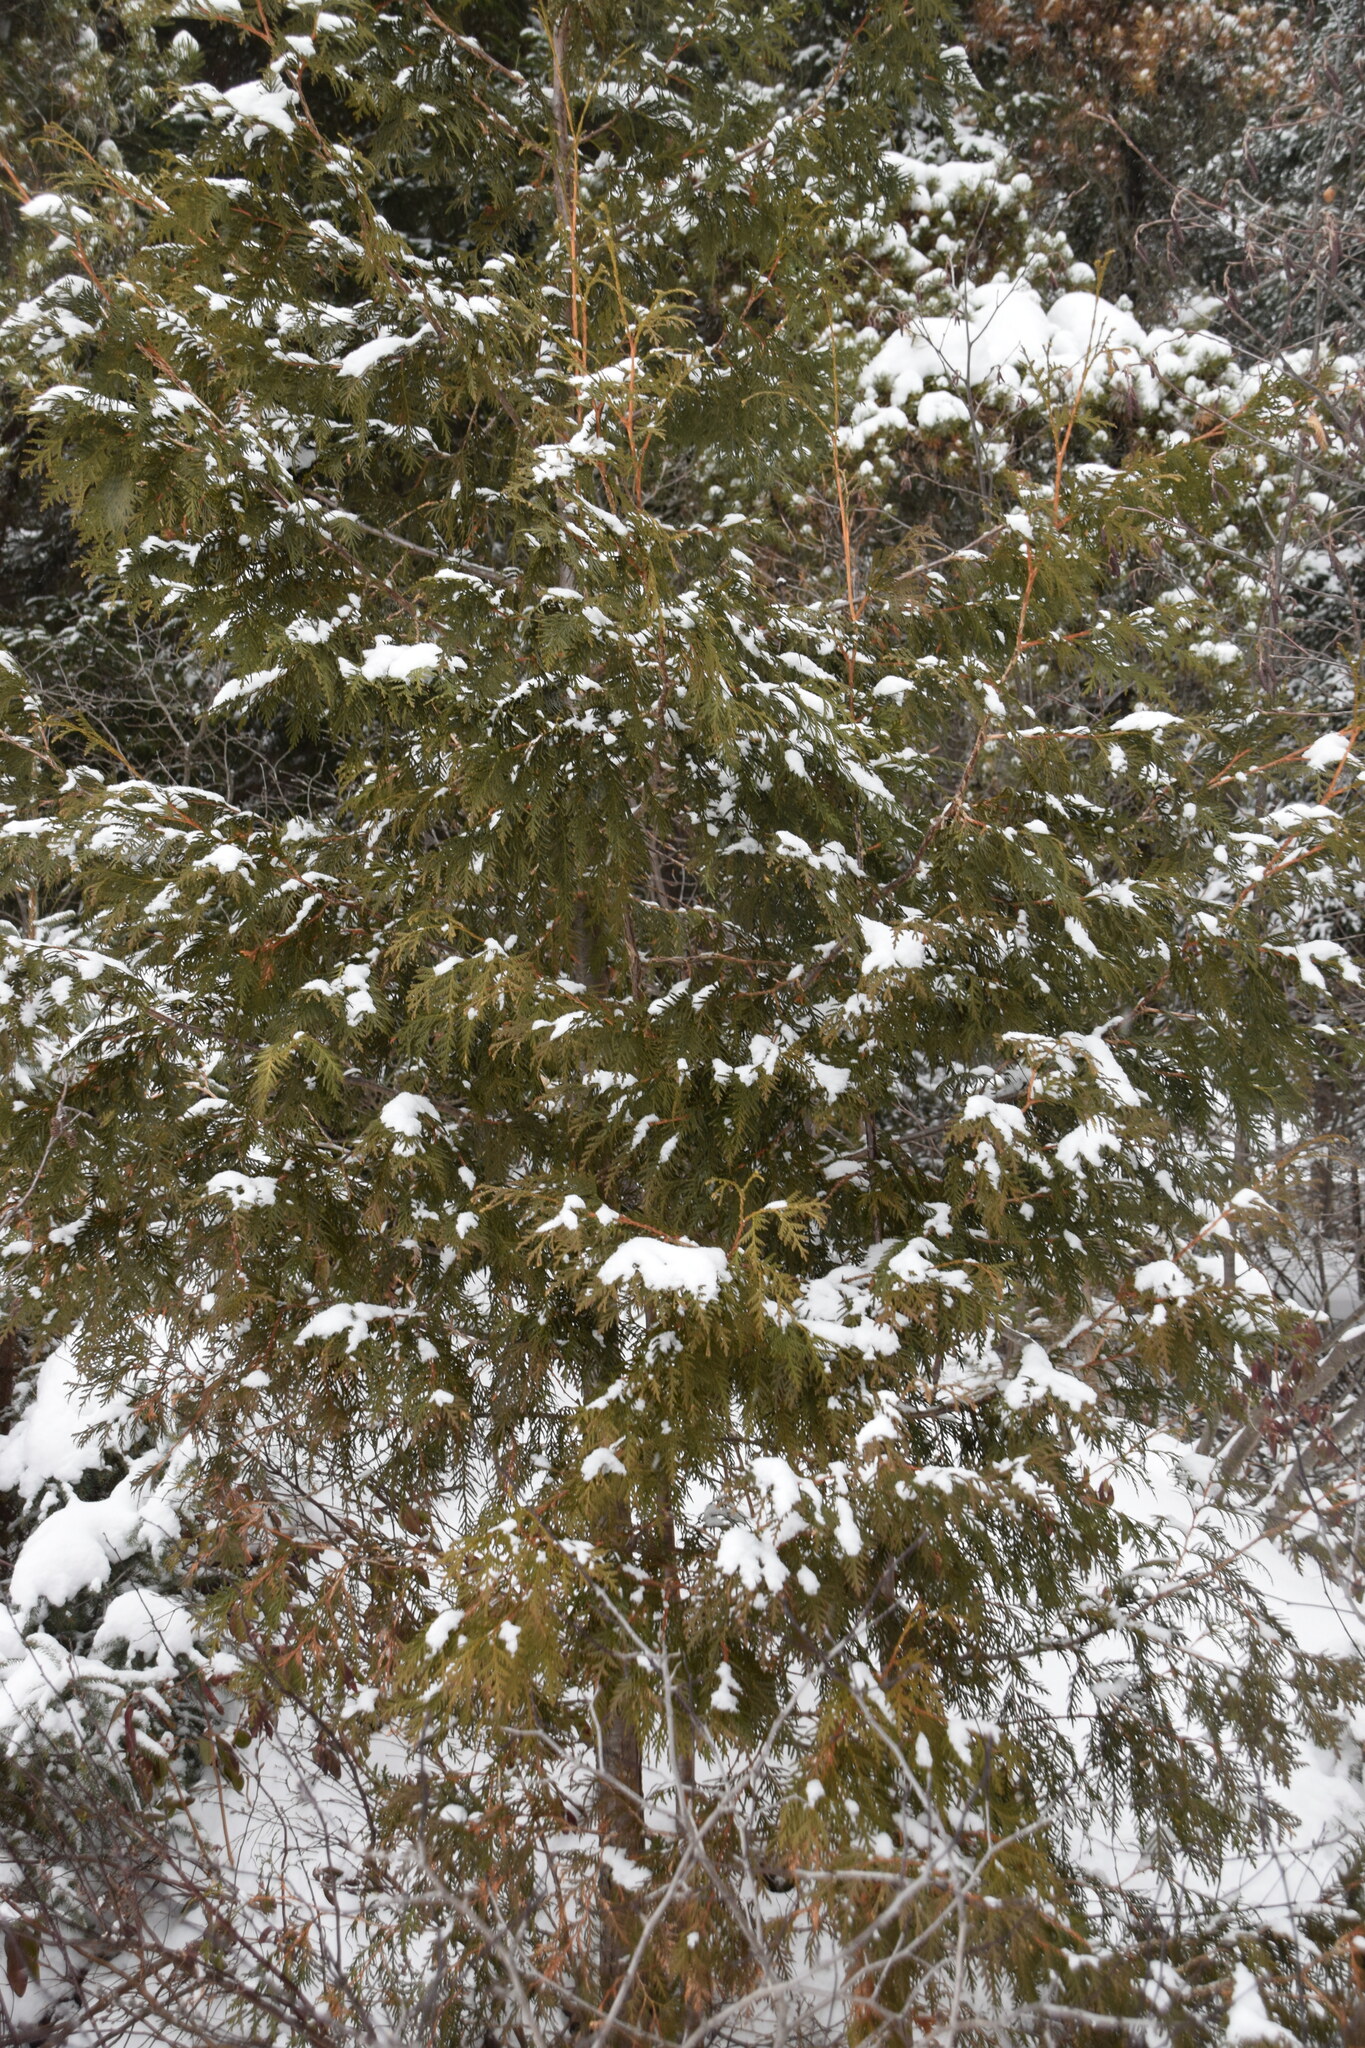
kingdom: Plantae
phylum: Tracheophyta
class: Pinopsida
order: Pinales
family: Cupressaceae
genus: Thuja
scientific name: Thuja occidentalis
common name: Northern white-cedar
